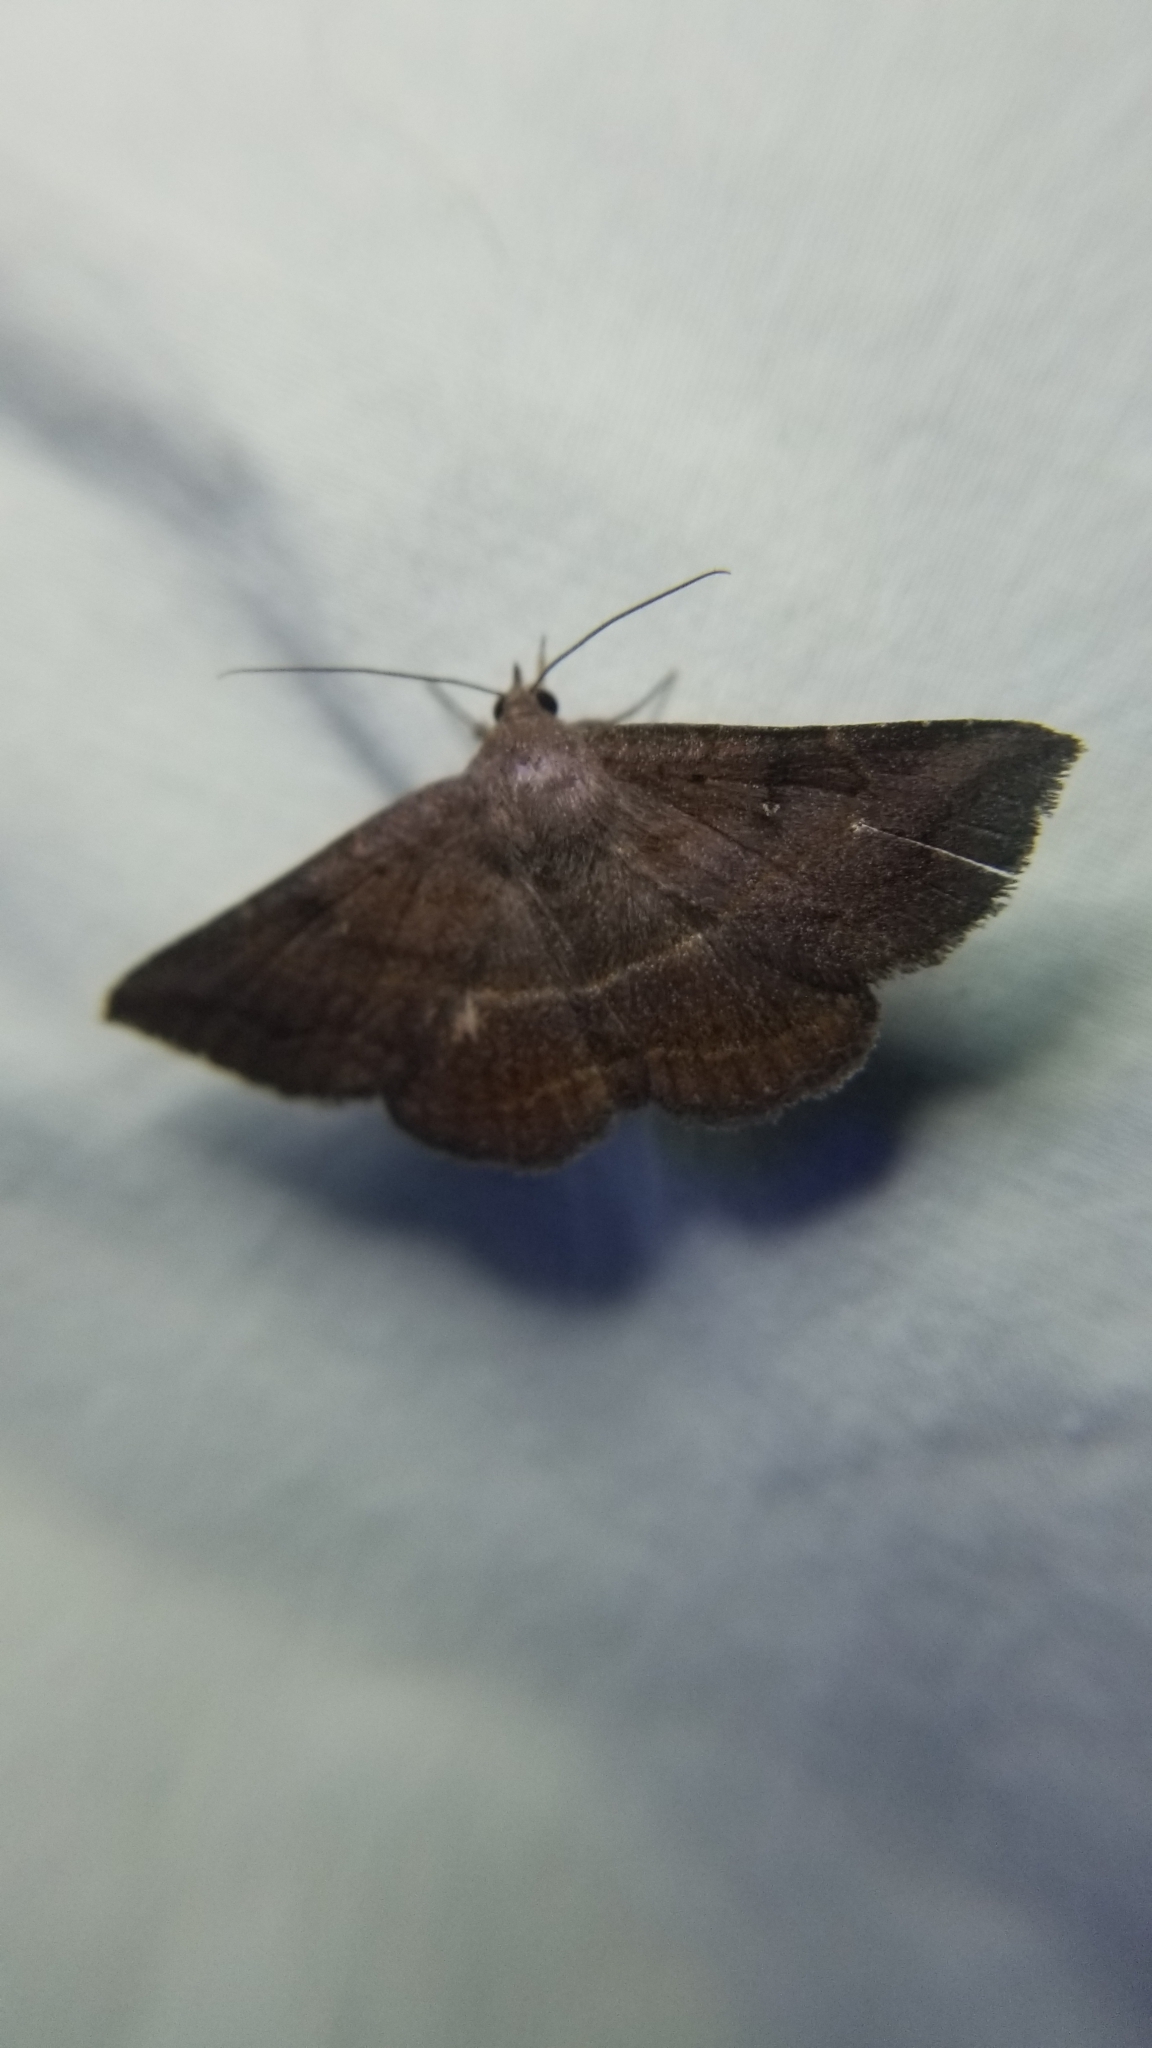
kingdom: Animalia
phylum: Arthropoda
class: Insecta
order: Lepidoptera
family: Erebidae
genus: Lesmone
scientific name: Lesmone detrahens
